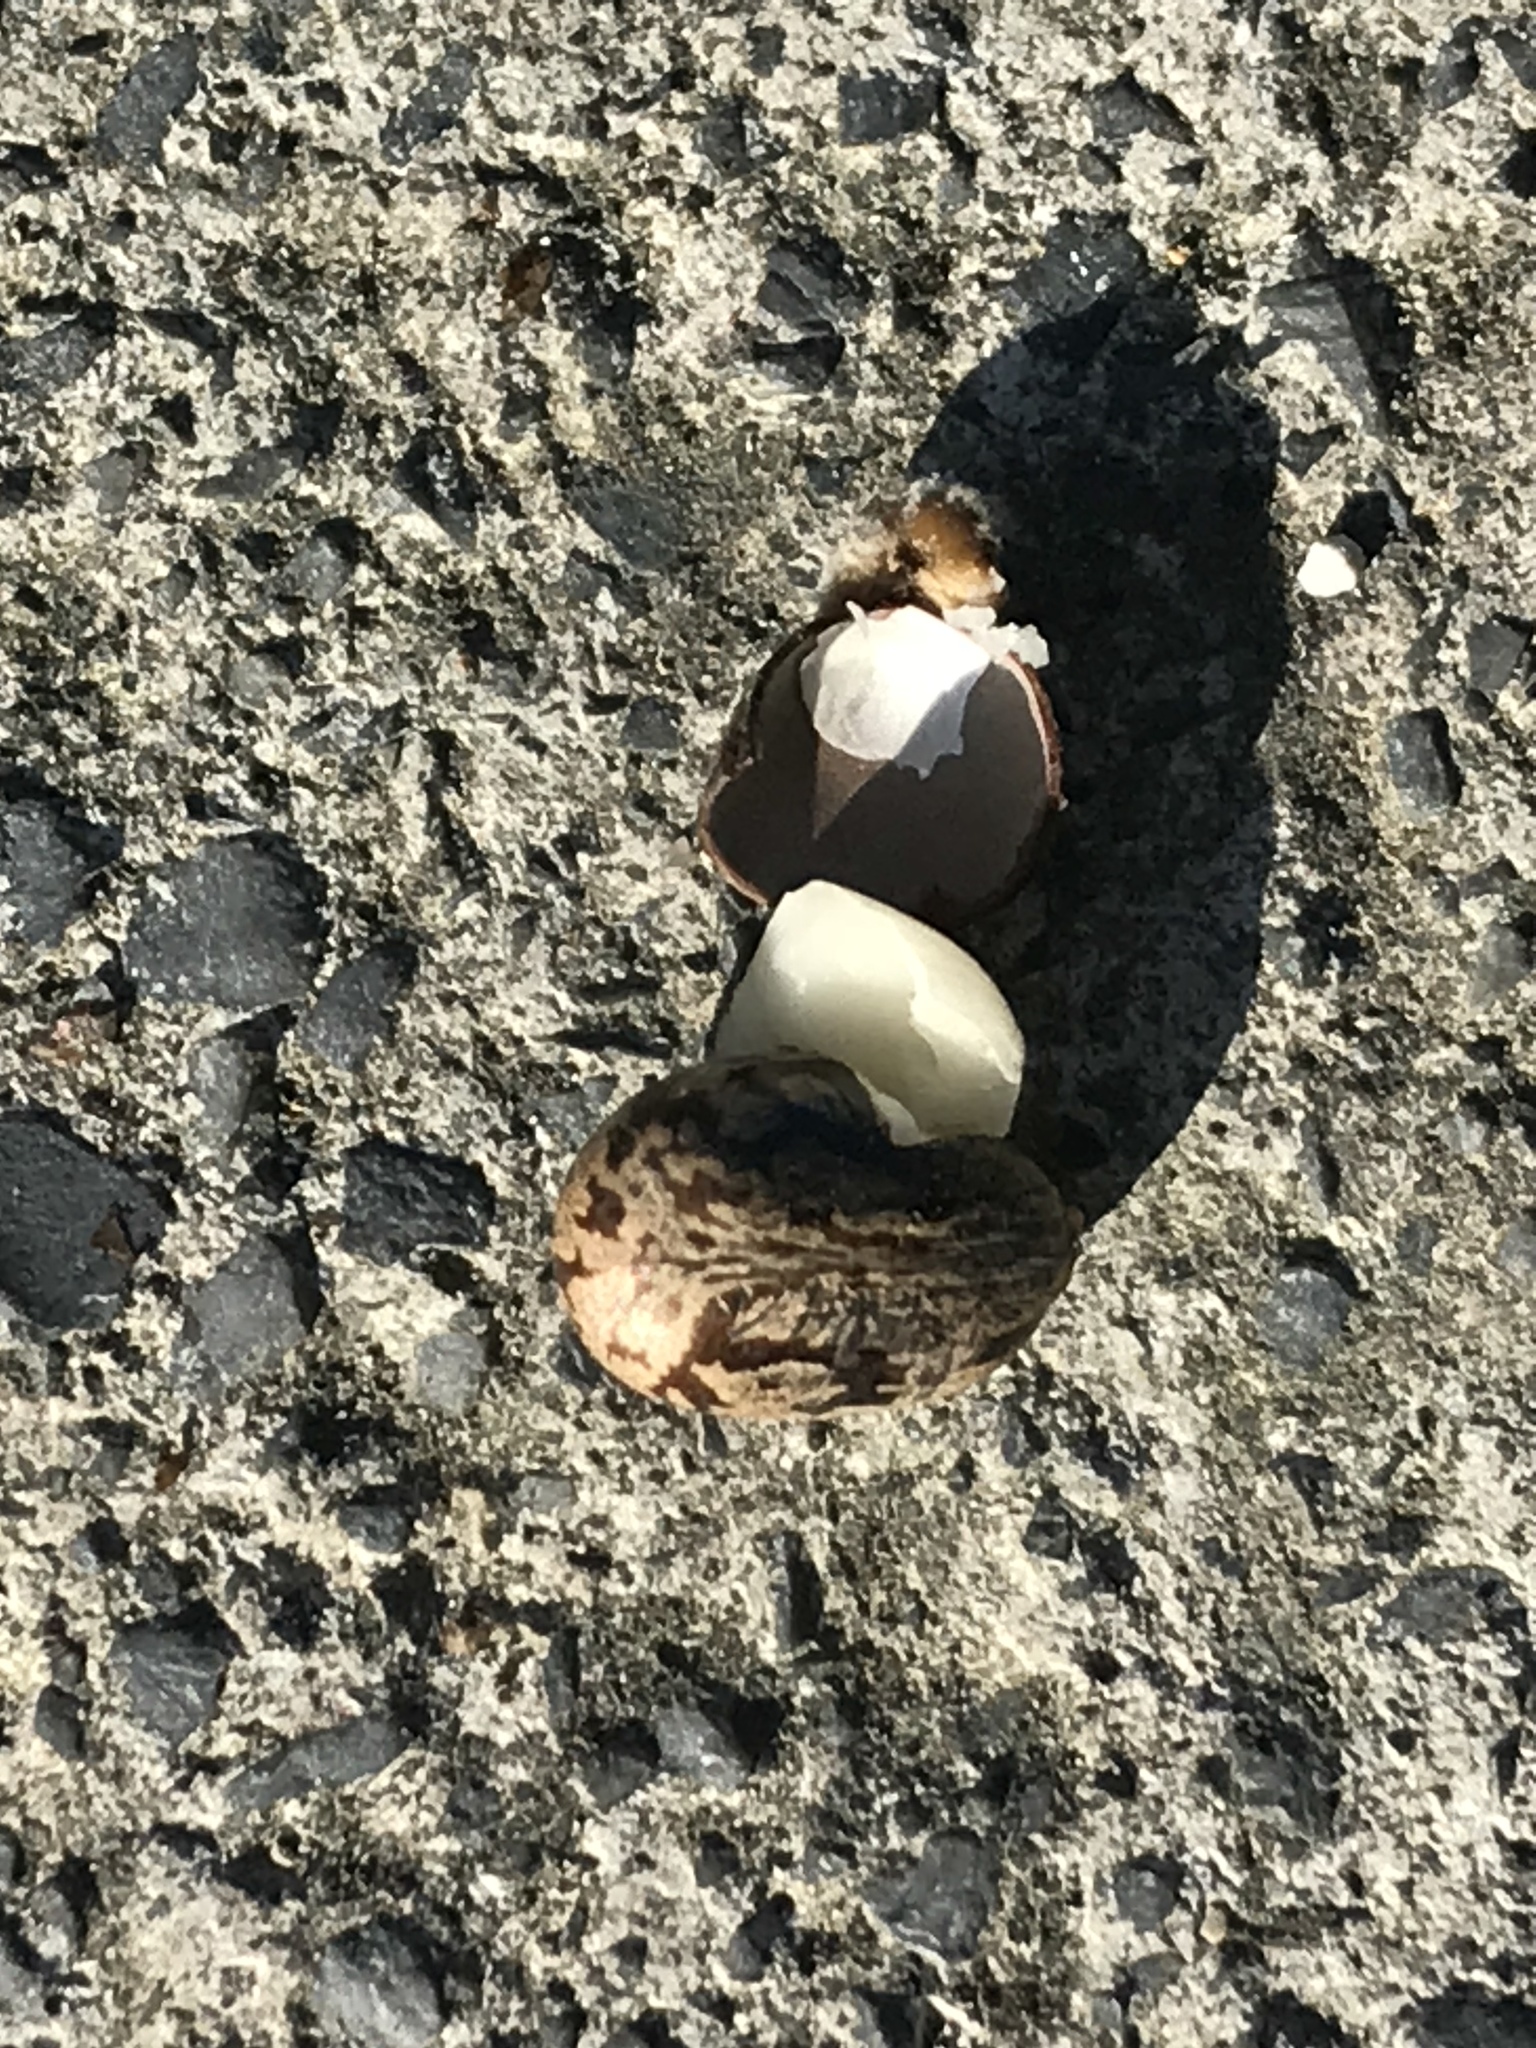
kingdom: Plantae
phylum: Tracheophyta
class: Magnoliopsida
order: Malpighiales
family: Euphorbiaceae
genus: Ricinus
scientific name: Ricinus communis
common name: Castor-oil-plant
